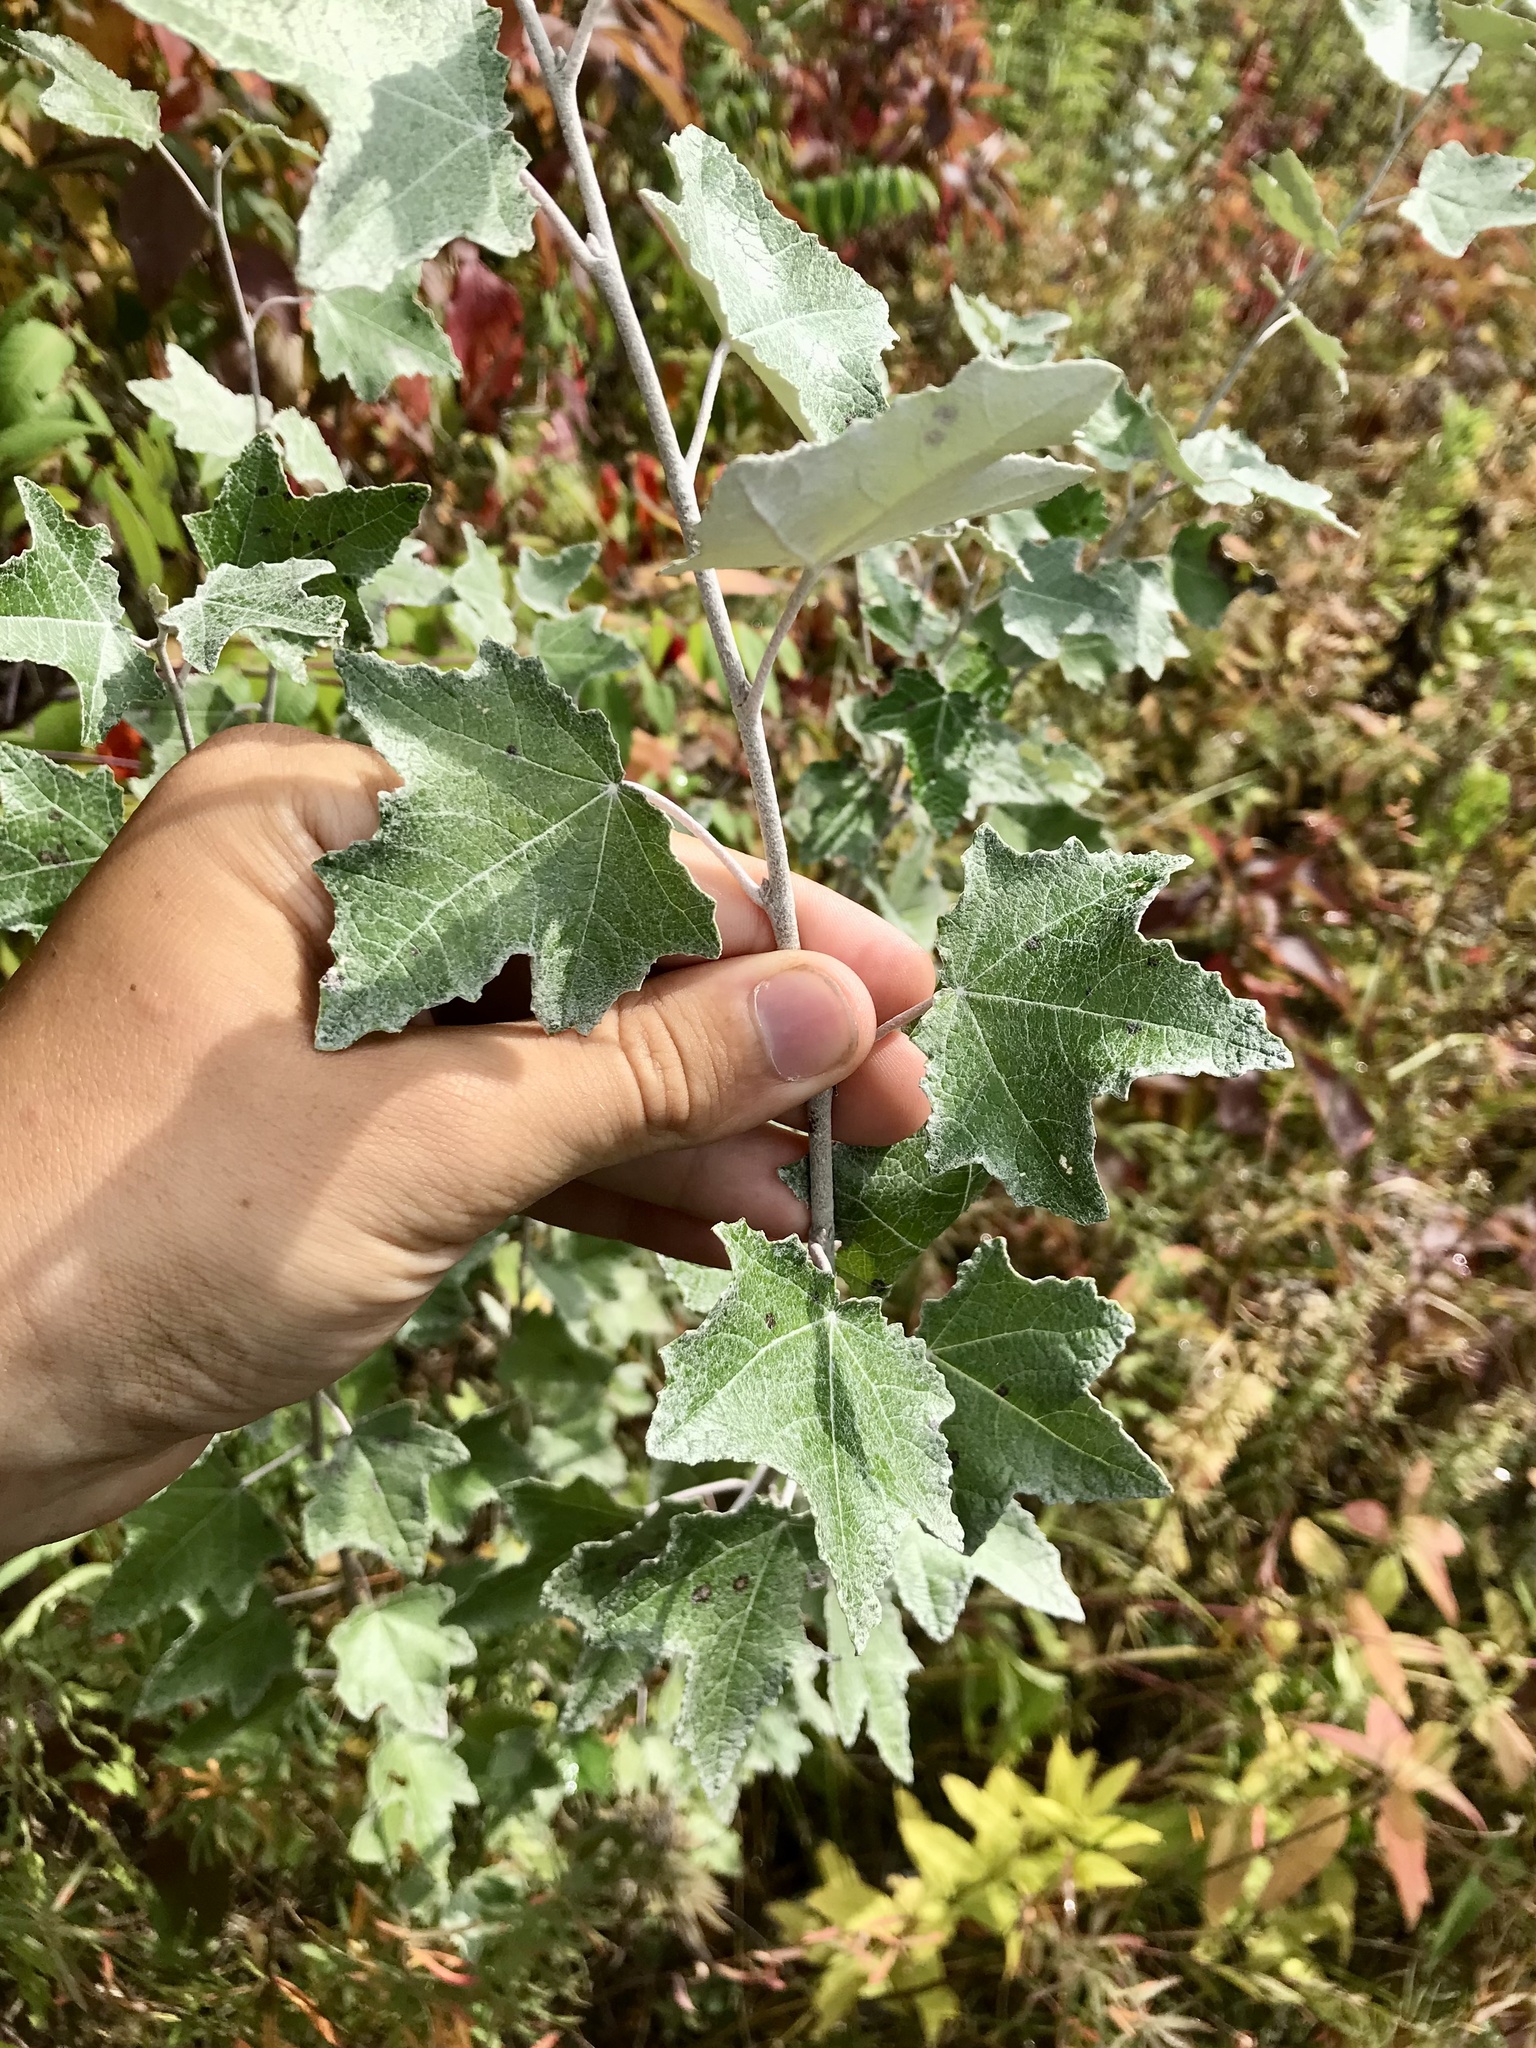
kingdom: Plantae
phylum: Tracheophyta
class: Magnoliopsida
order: Malpighiales
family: Salicaceae
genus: Populus
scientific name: Populus alba
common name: White poplar
